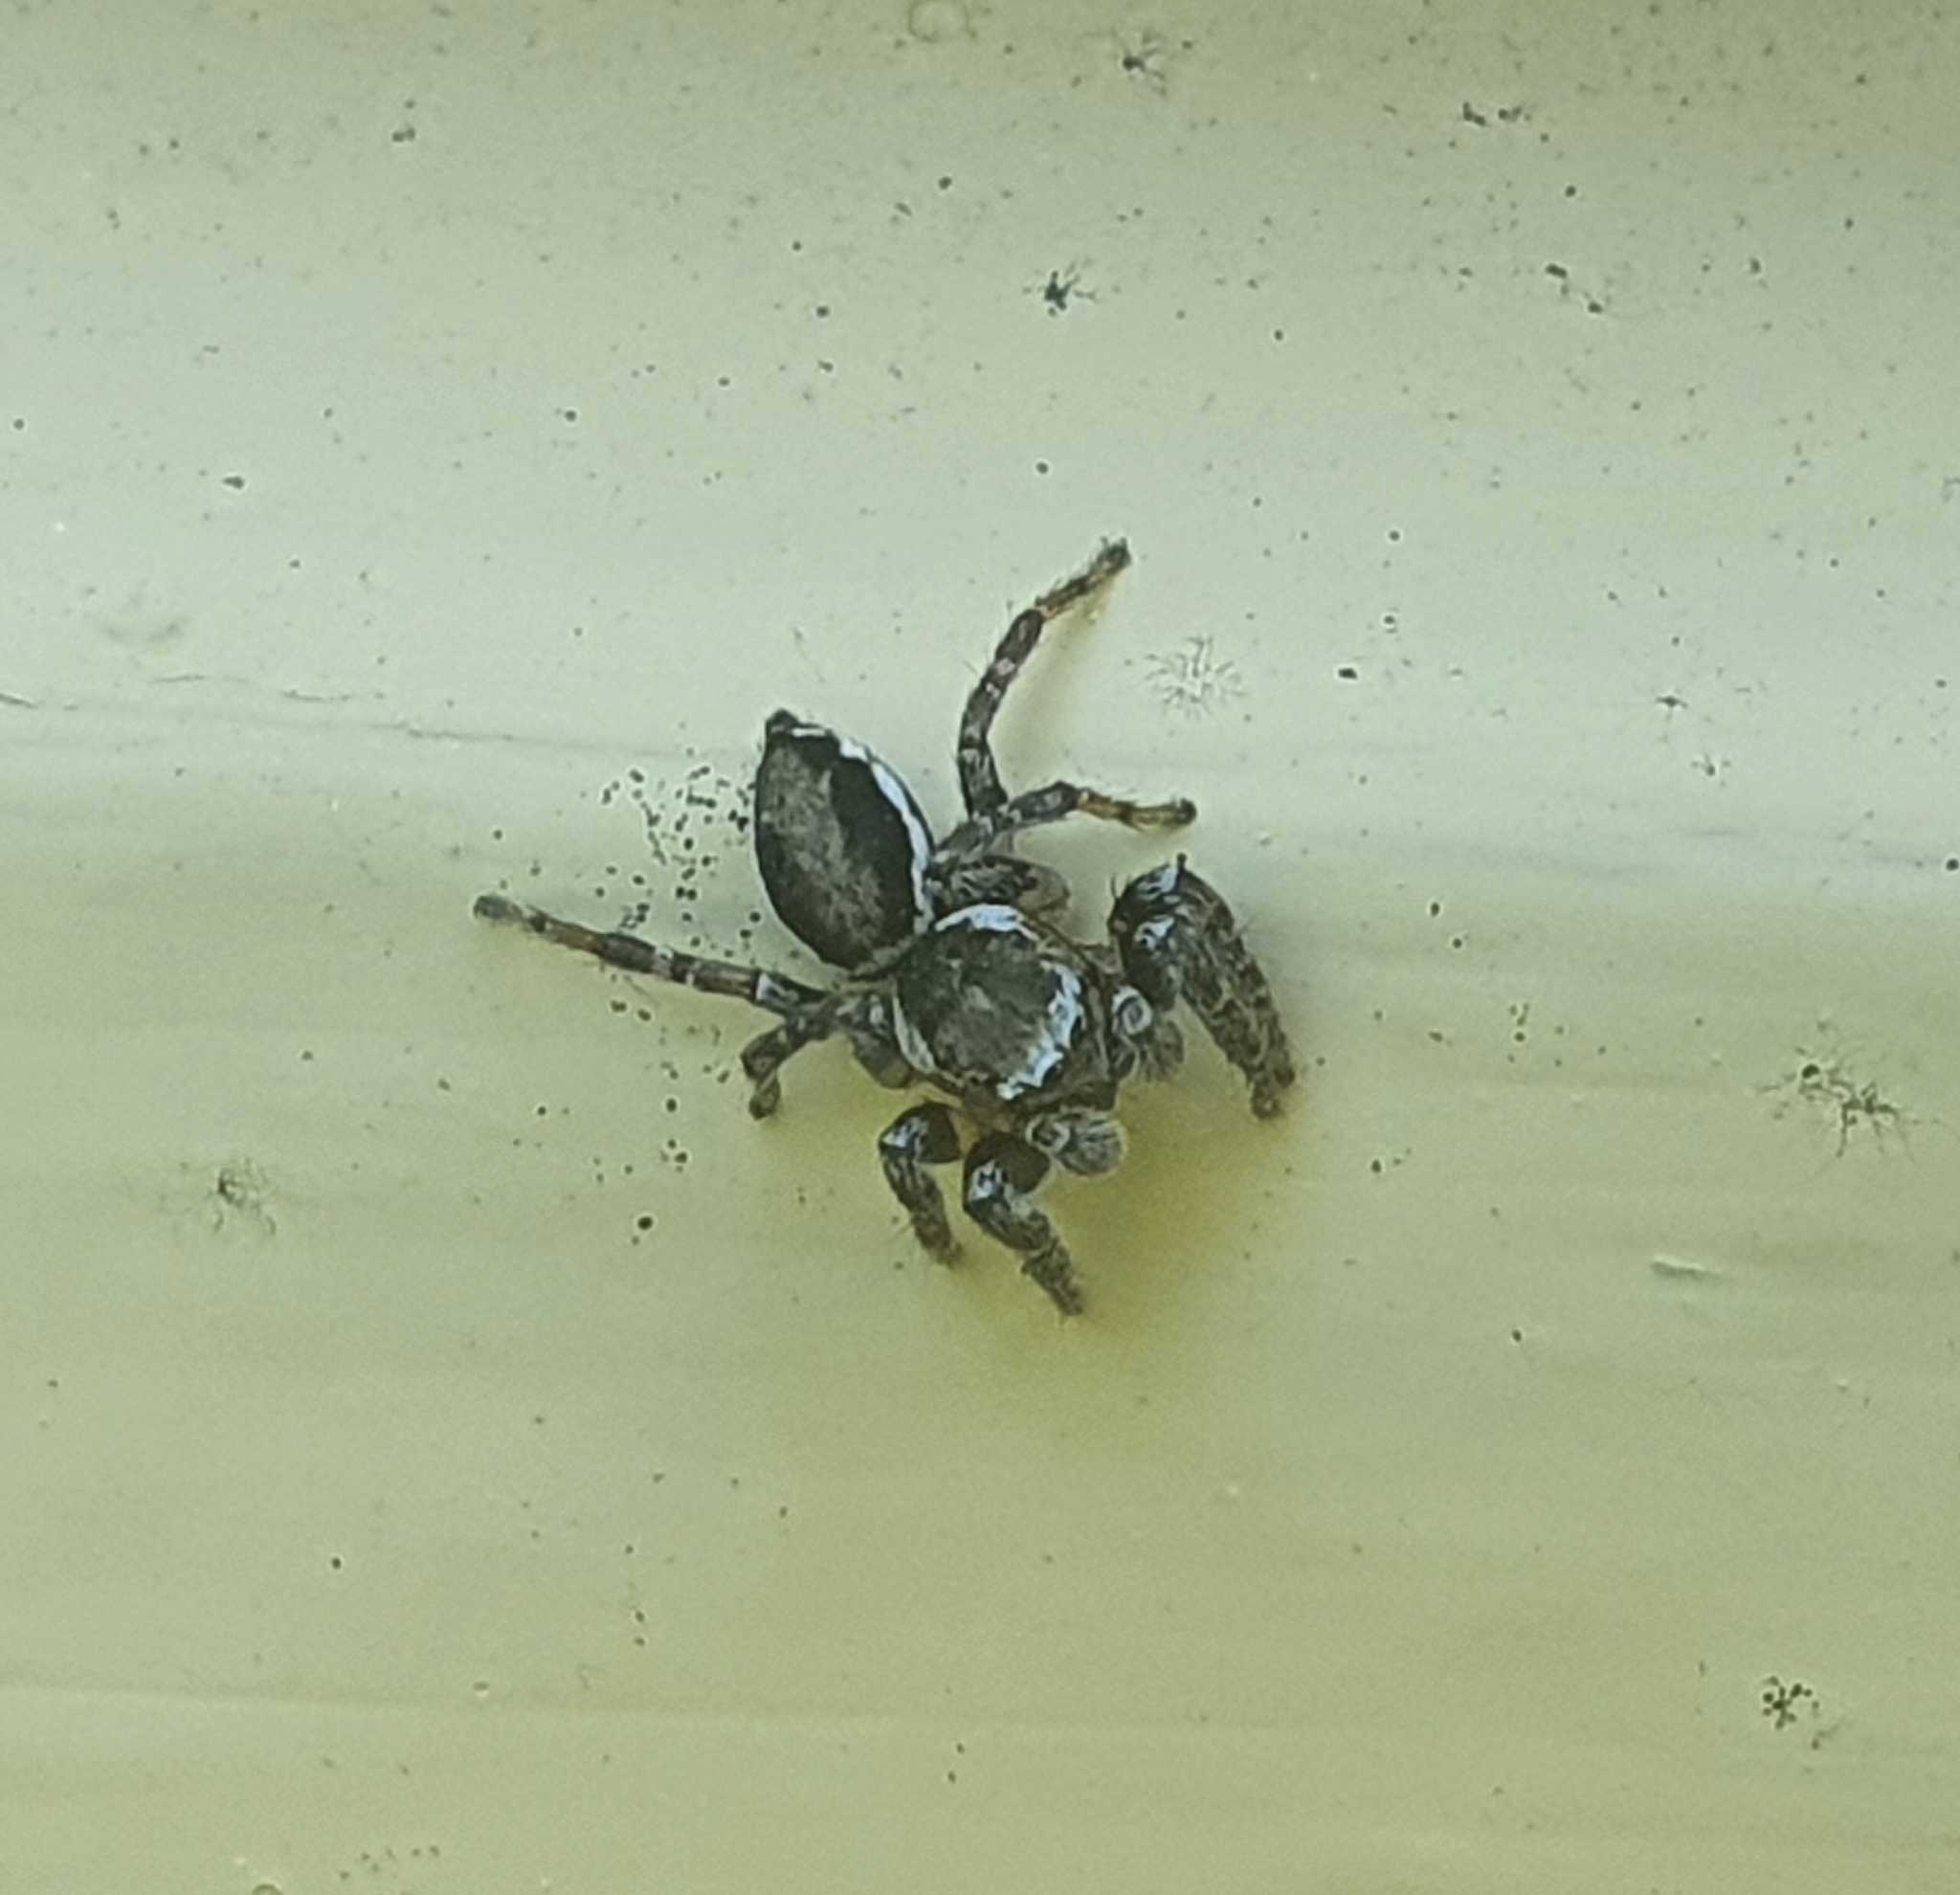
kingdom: Animalia
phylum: Arthropoda
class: Arachnida
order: Araneae
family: Salticidae
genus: Evarcha
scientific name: Evarcha falcata
